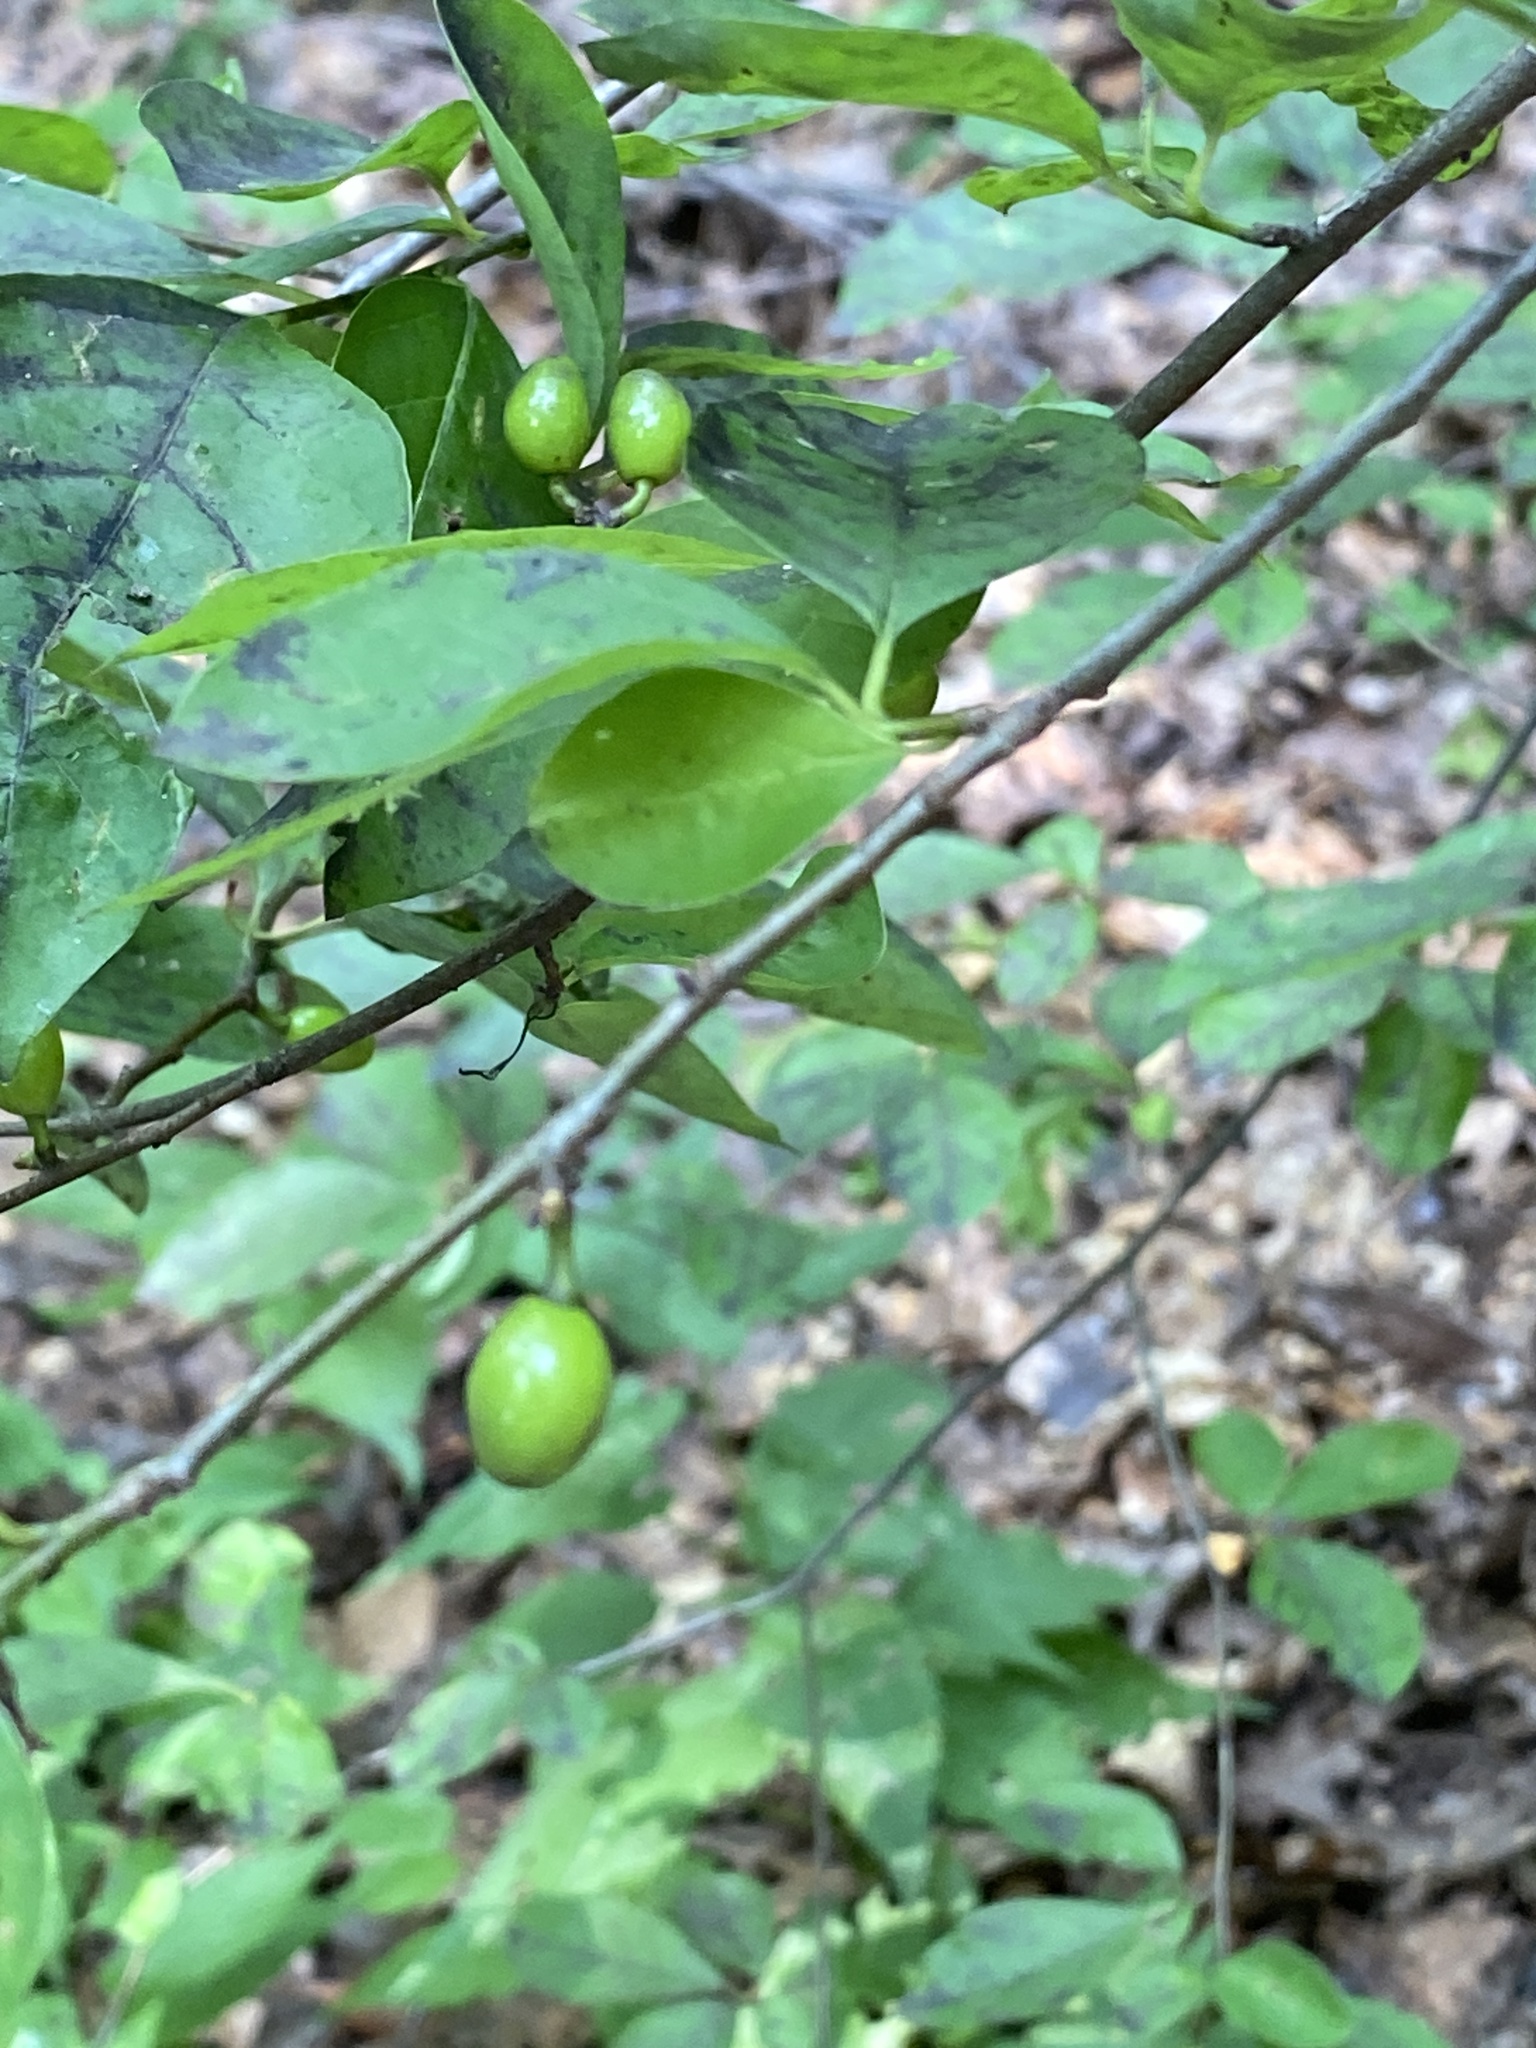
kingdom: Plantae
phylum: Tracheophyta
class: Magnoliopsida
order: Laurales
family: Lauraceae
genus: Lindera
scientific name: Lindera benzoin
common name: Spicebush
